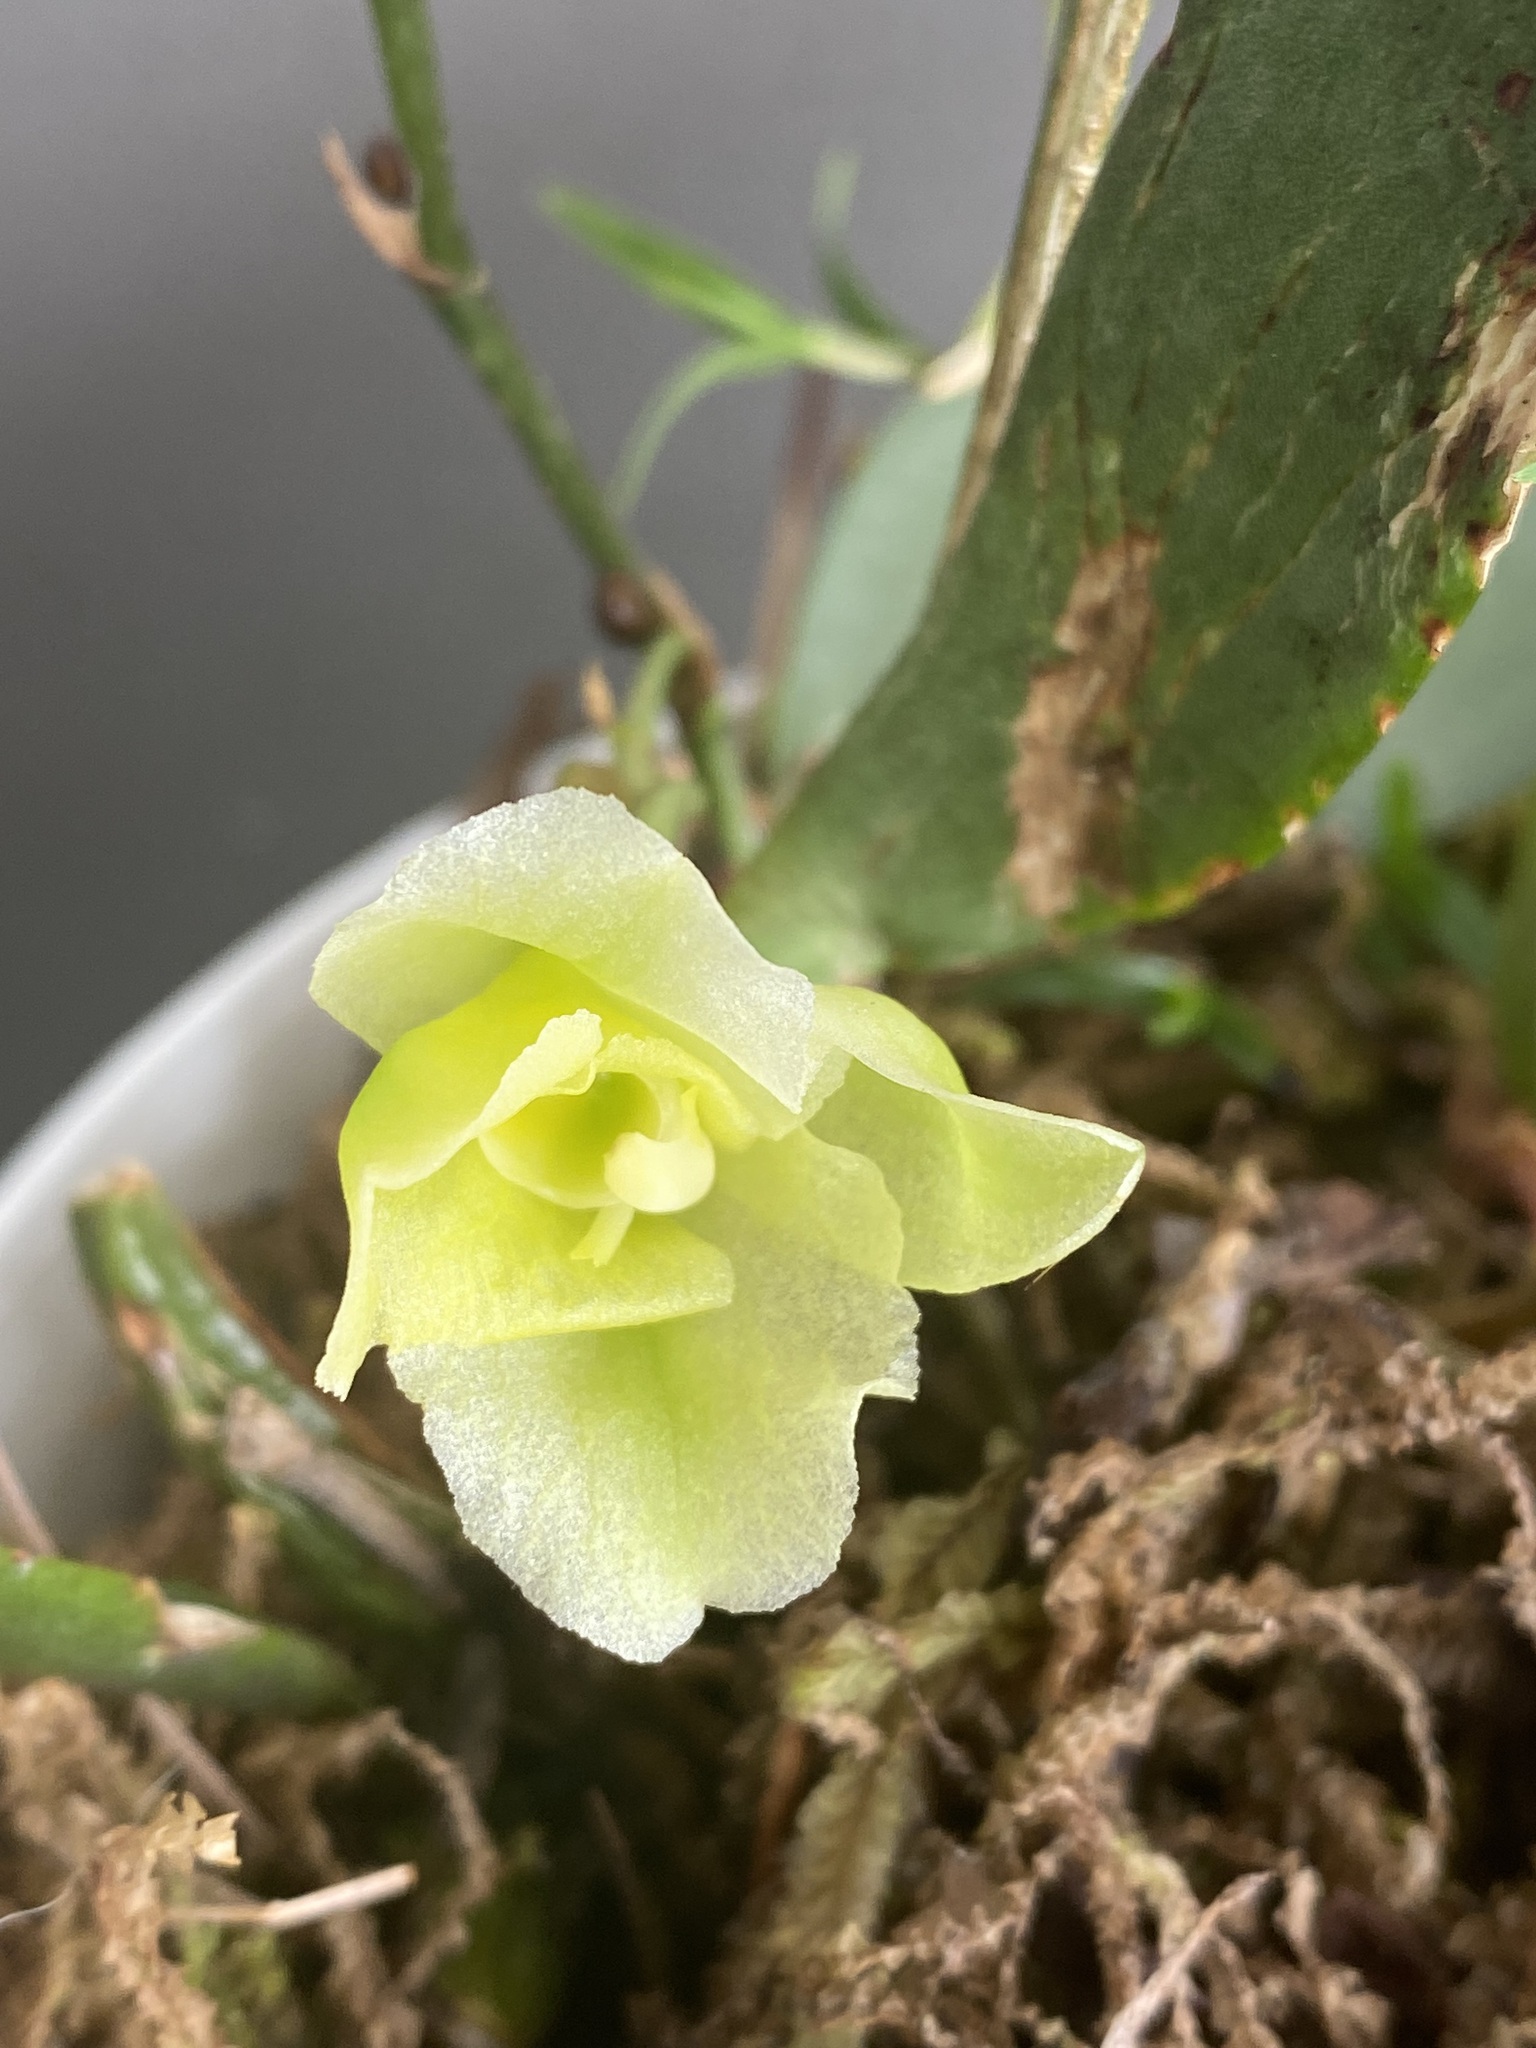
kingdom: Plantae
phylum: Tracheophyta
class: Liliopsida
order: Asparagales
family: Orchidaceae
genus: Rodriguezia
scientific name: Rodriguezia granadensis
